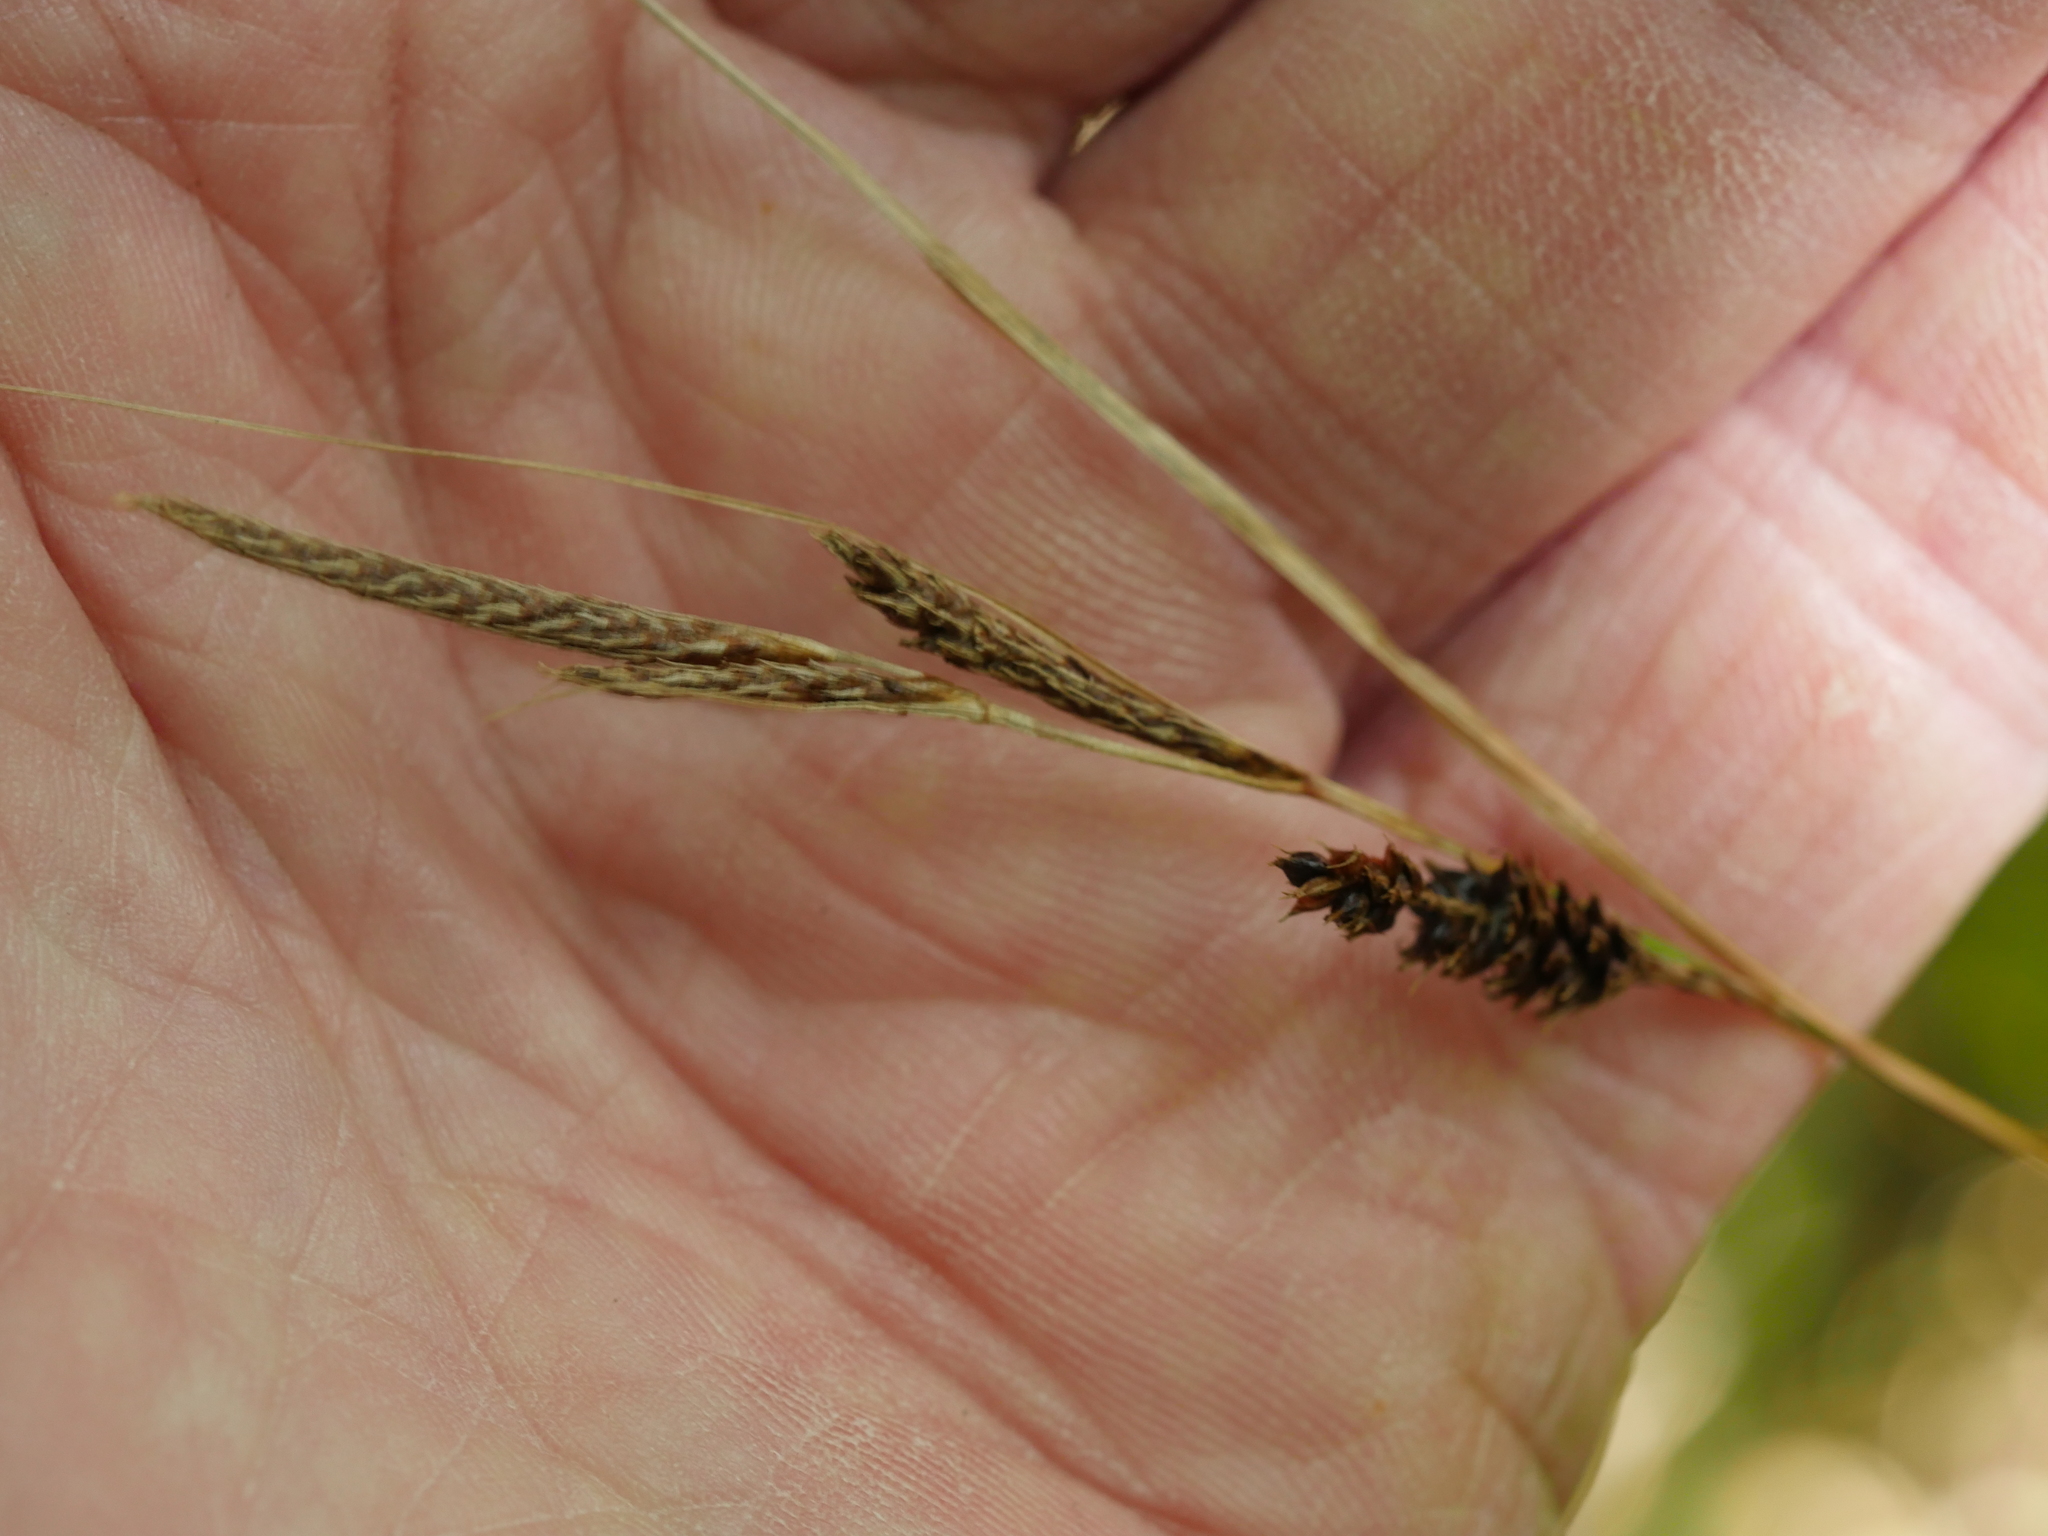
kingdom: Plantae
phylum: Tracheophyta
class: Liliopsida
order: Poales
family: Cyperaceae
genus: Carex
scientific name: Carex dissita
